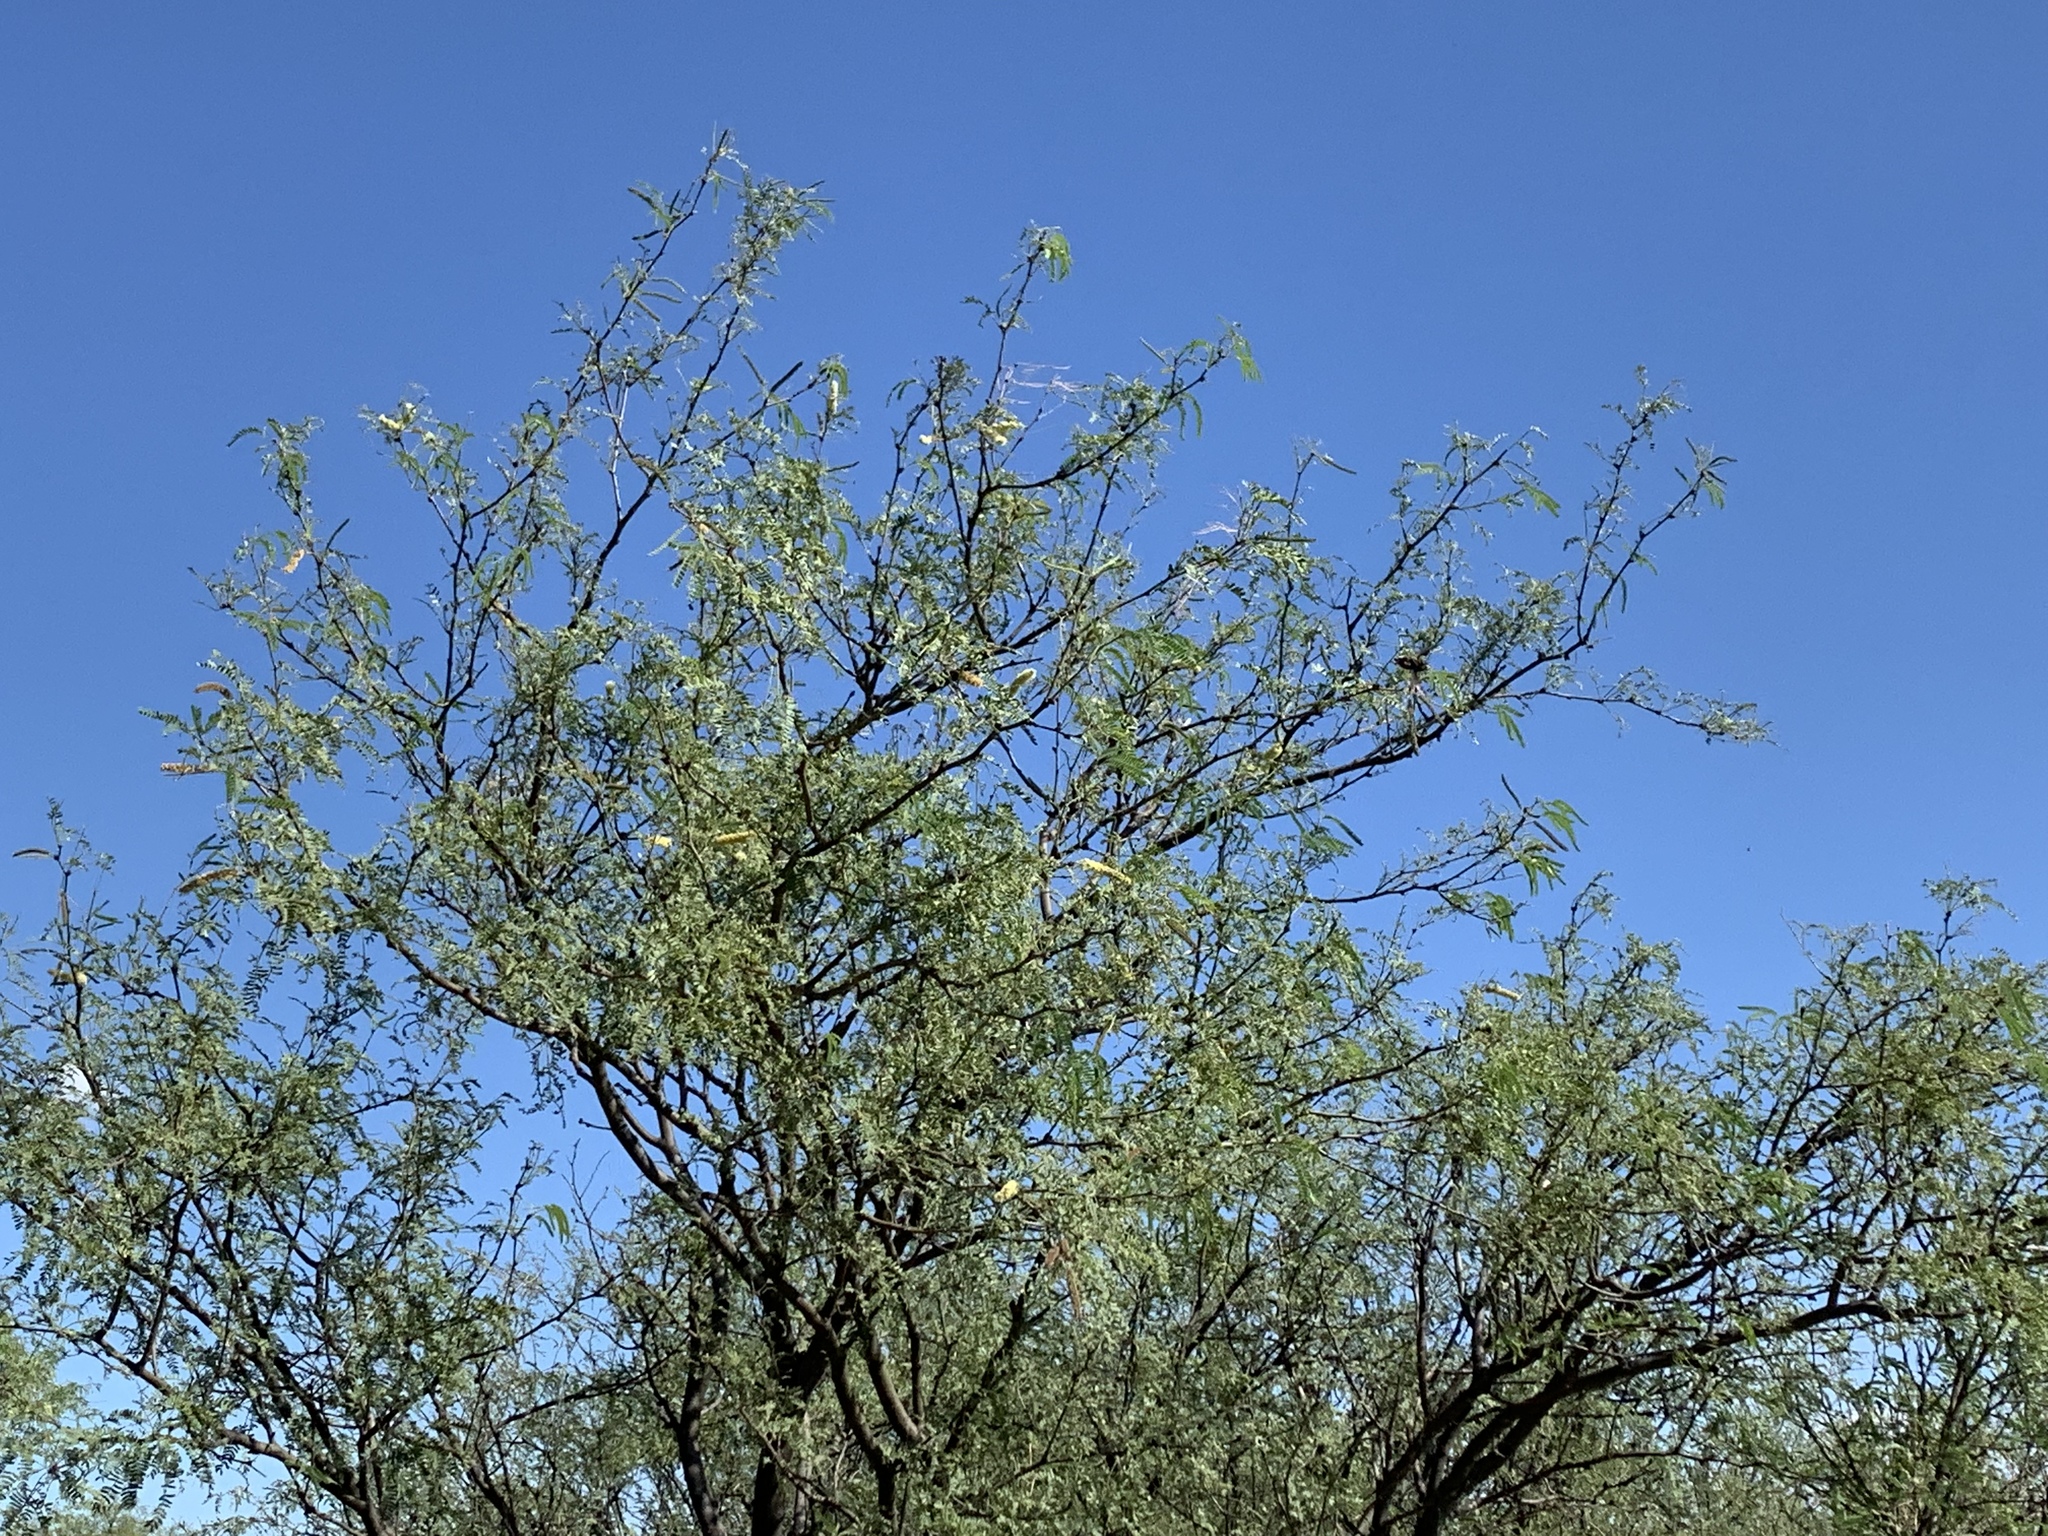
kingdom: Plantae
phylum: Tracheophyta
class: Magnoliopsida
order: Fabales
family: Fabaceae
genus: Prosopis
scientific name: Prosopis velutina
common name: Velvet mesquite
